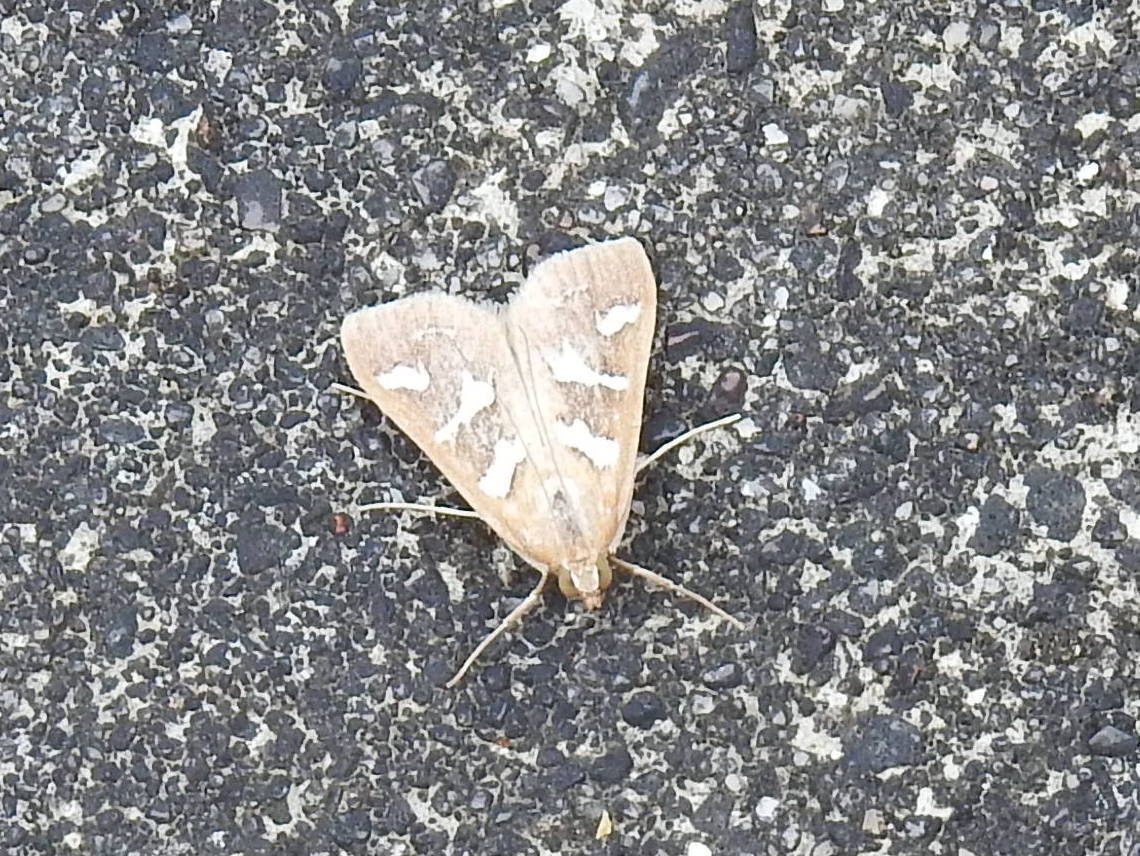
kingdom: Animalia
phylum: Arthropoda
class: Insecta
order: Lepidoptera
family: Crambidae
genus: Diastictis
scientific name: Diastictis fracturalis
